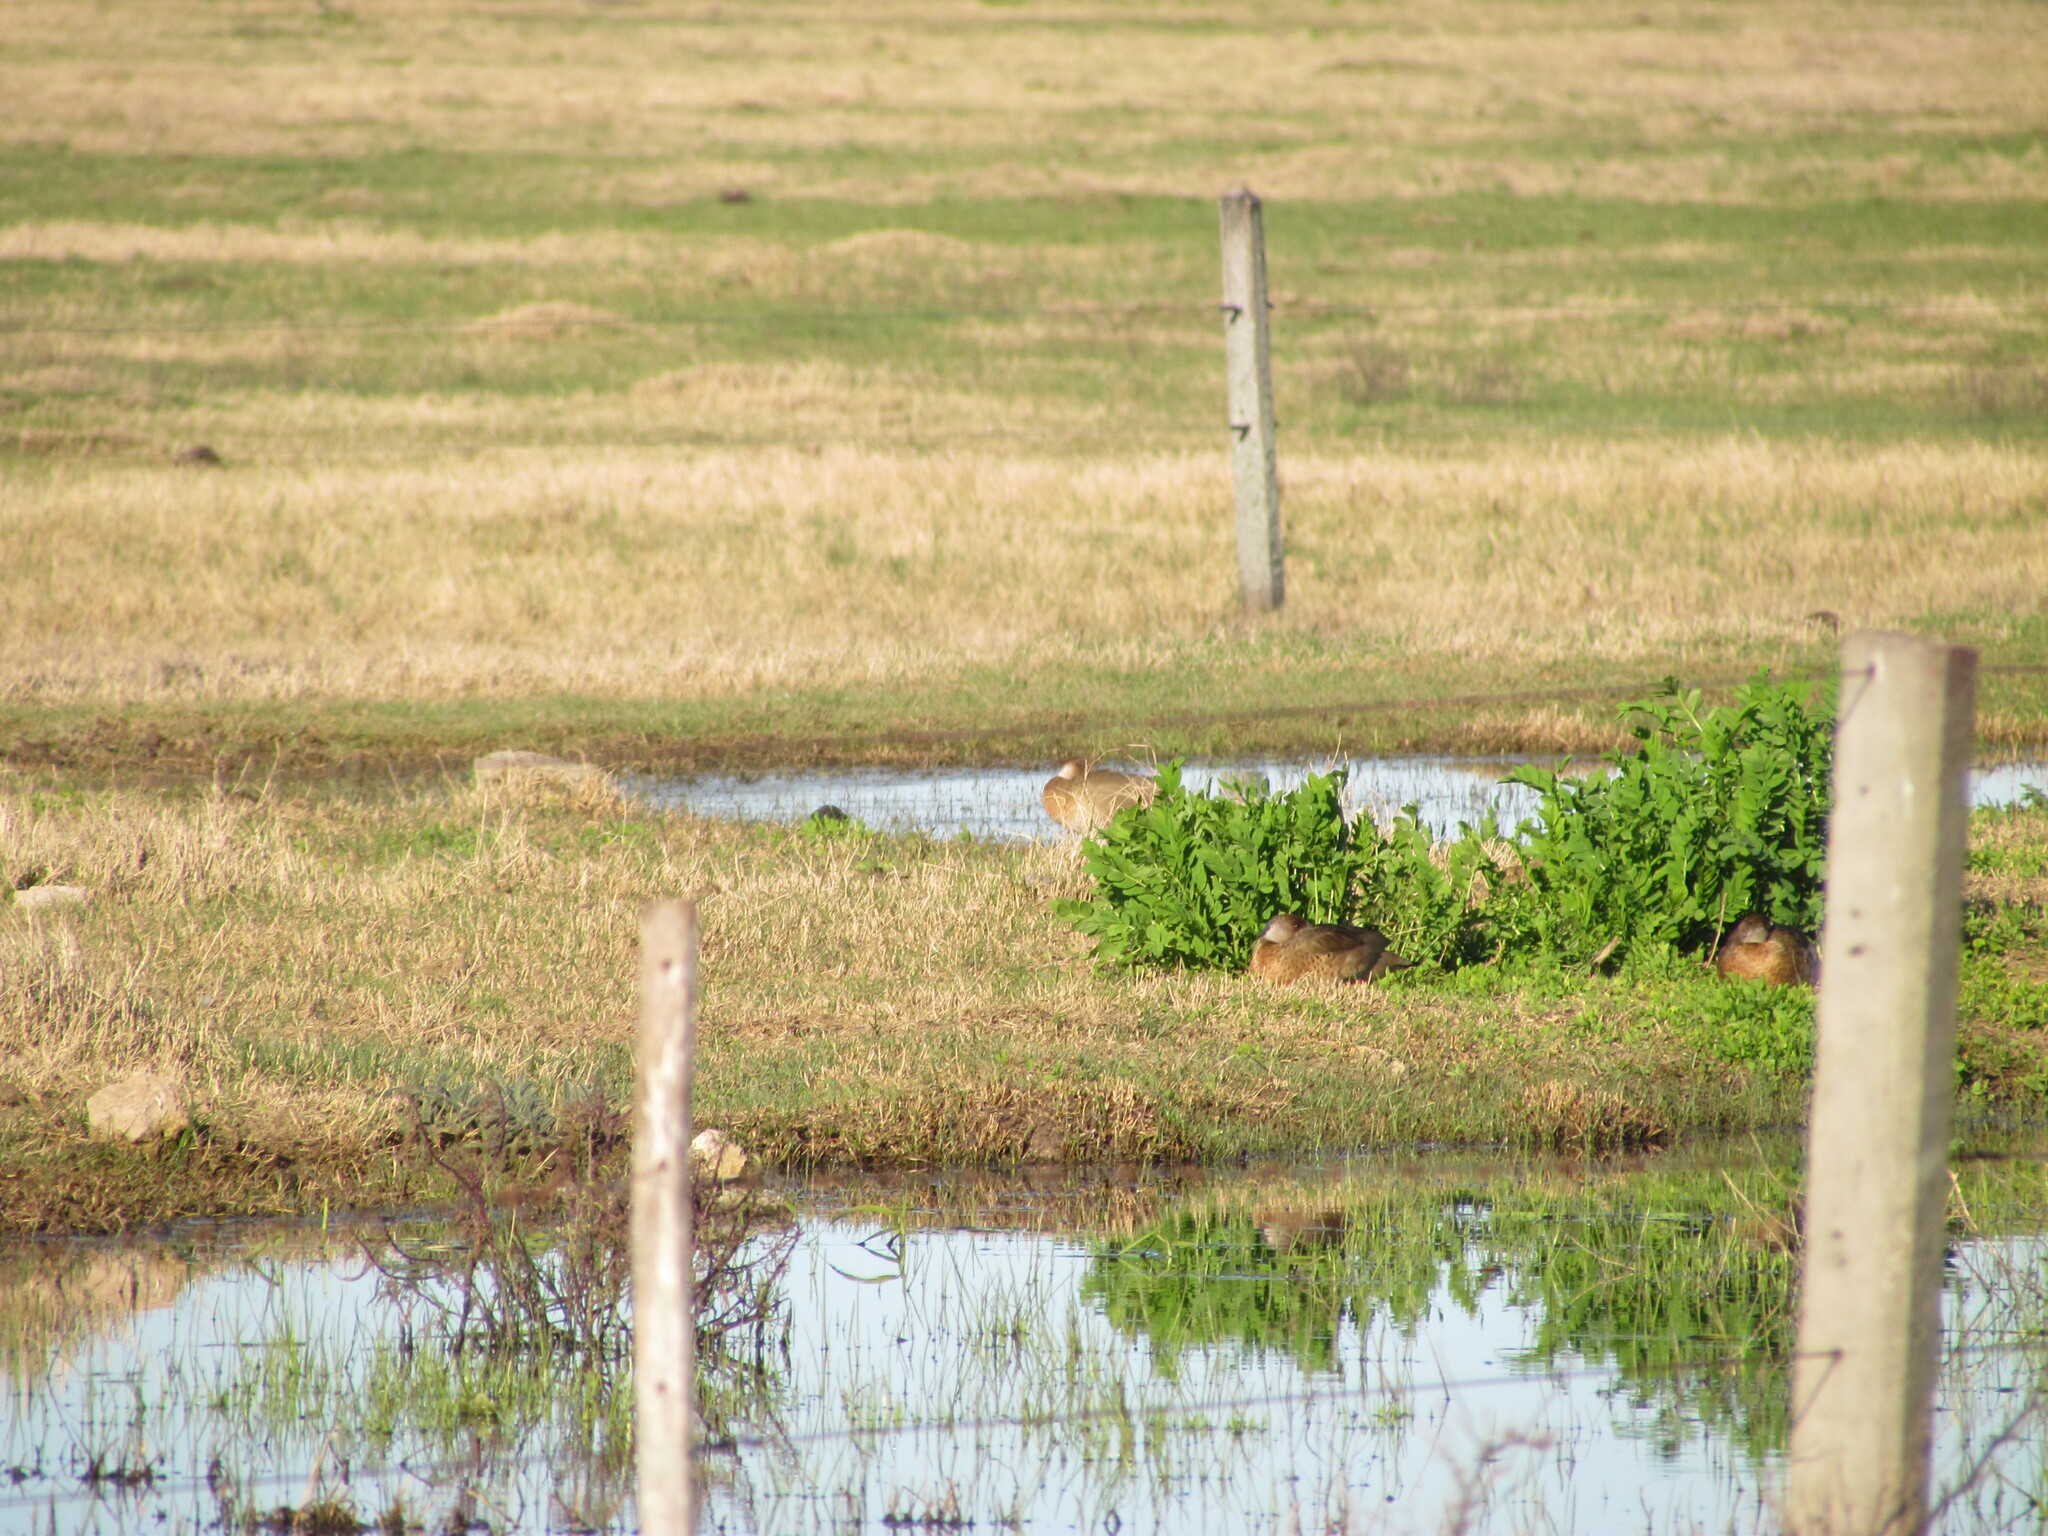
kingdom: Animalia
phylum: Chordata
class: Aves
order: Anseriformes
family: Anatidae
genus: Amazonetta
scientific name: Amazonetta brasiliensis
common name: Brazilian teal
